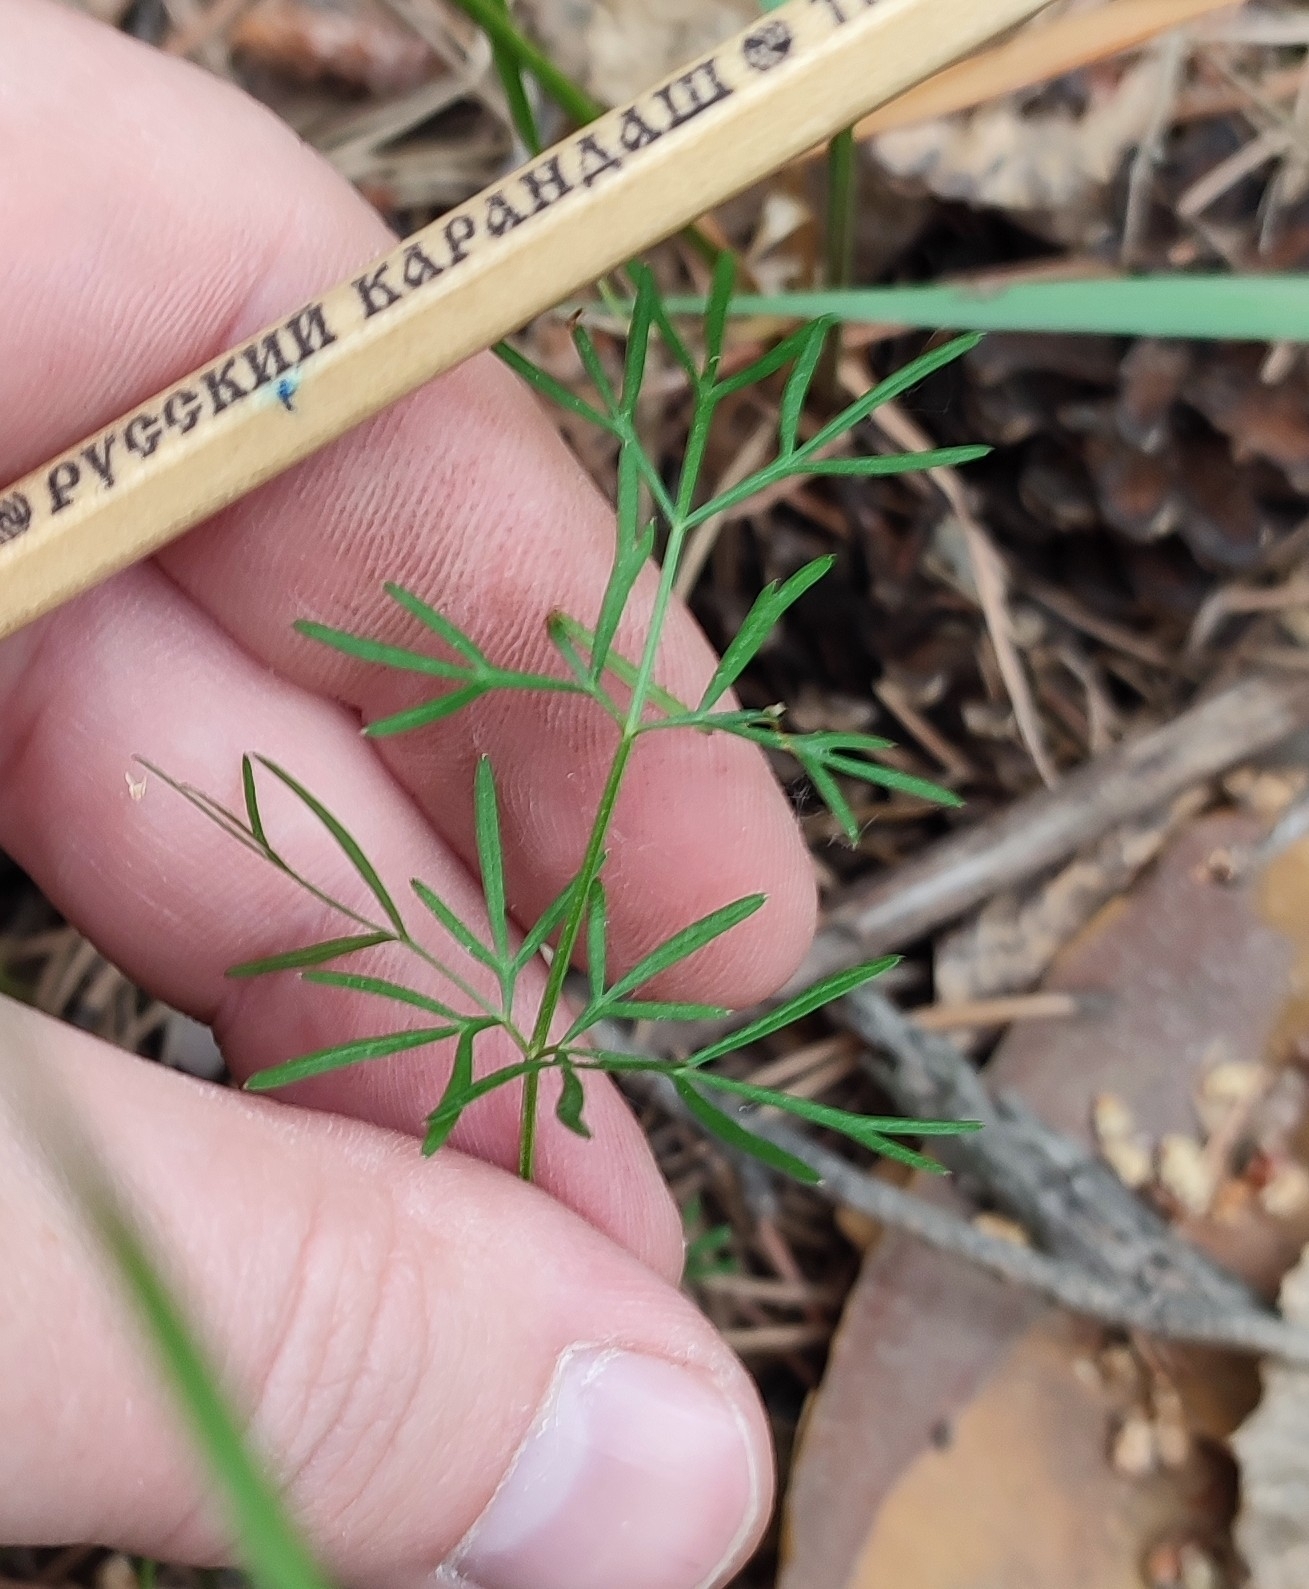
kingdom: Plantae
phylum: Tracheophyta
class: Magnoliopsida
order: Apiales
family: Apiaceae
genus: Kadenia
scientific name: Kadenia dubia
